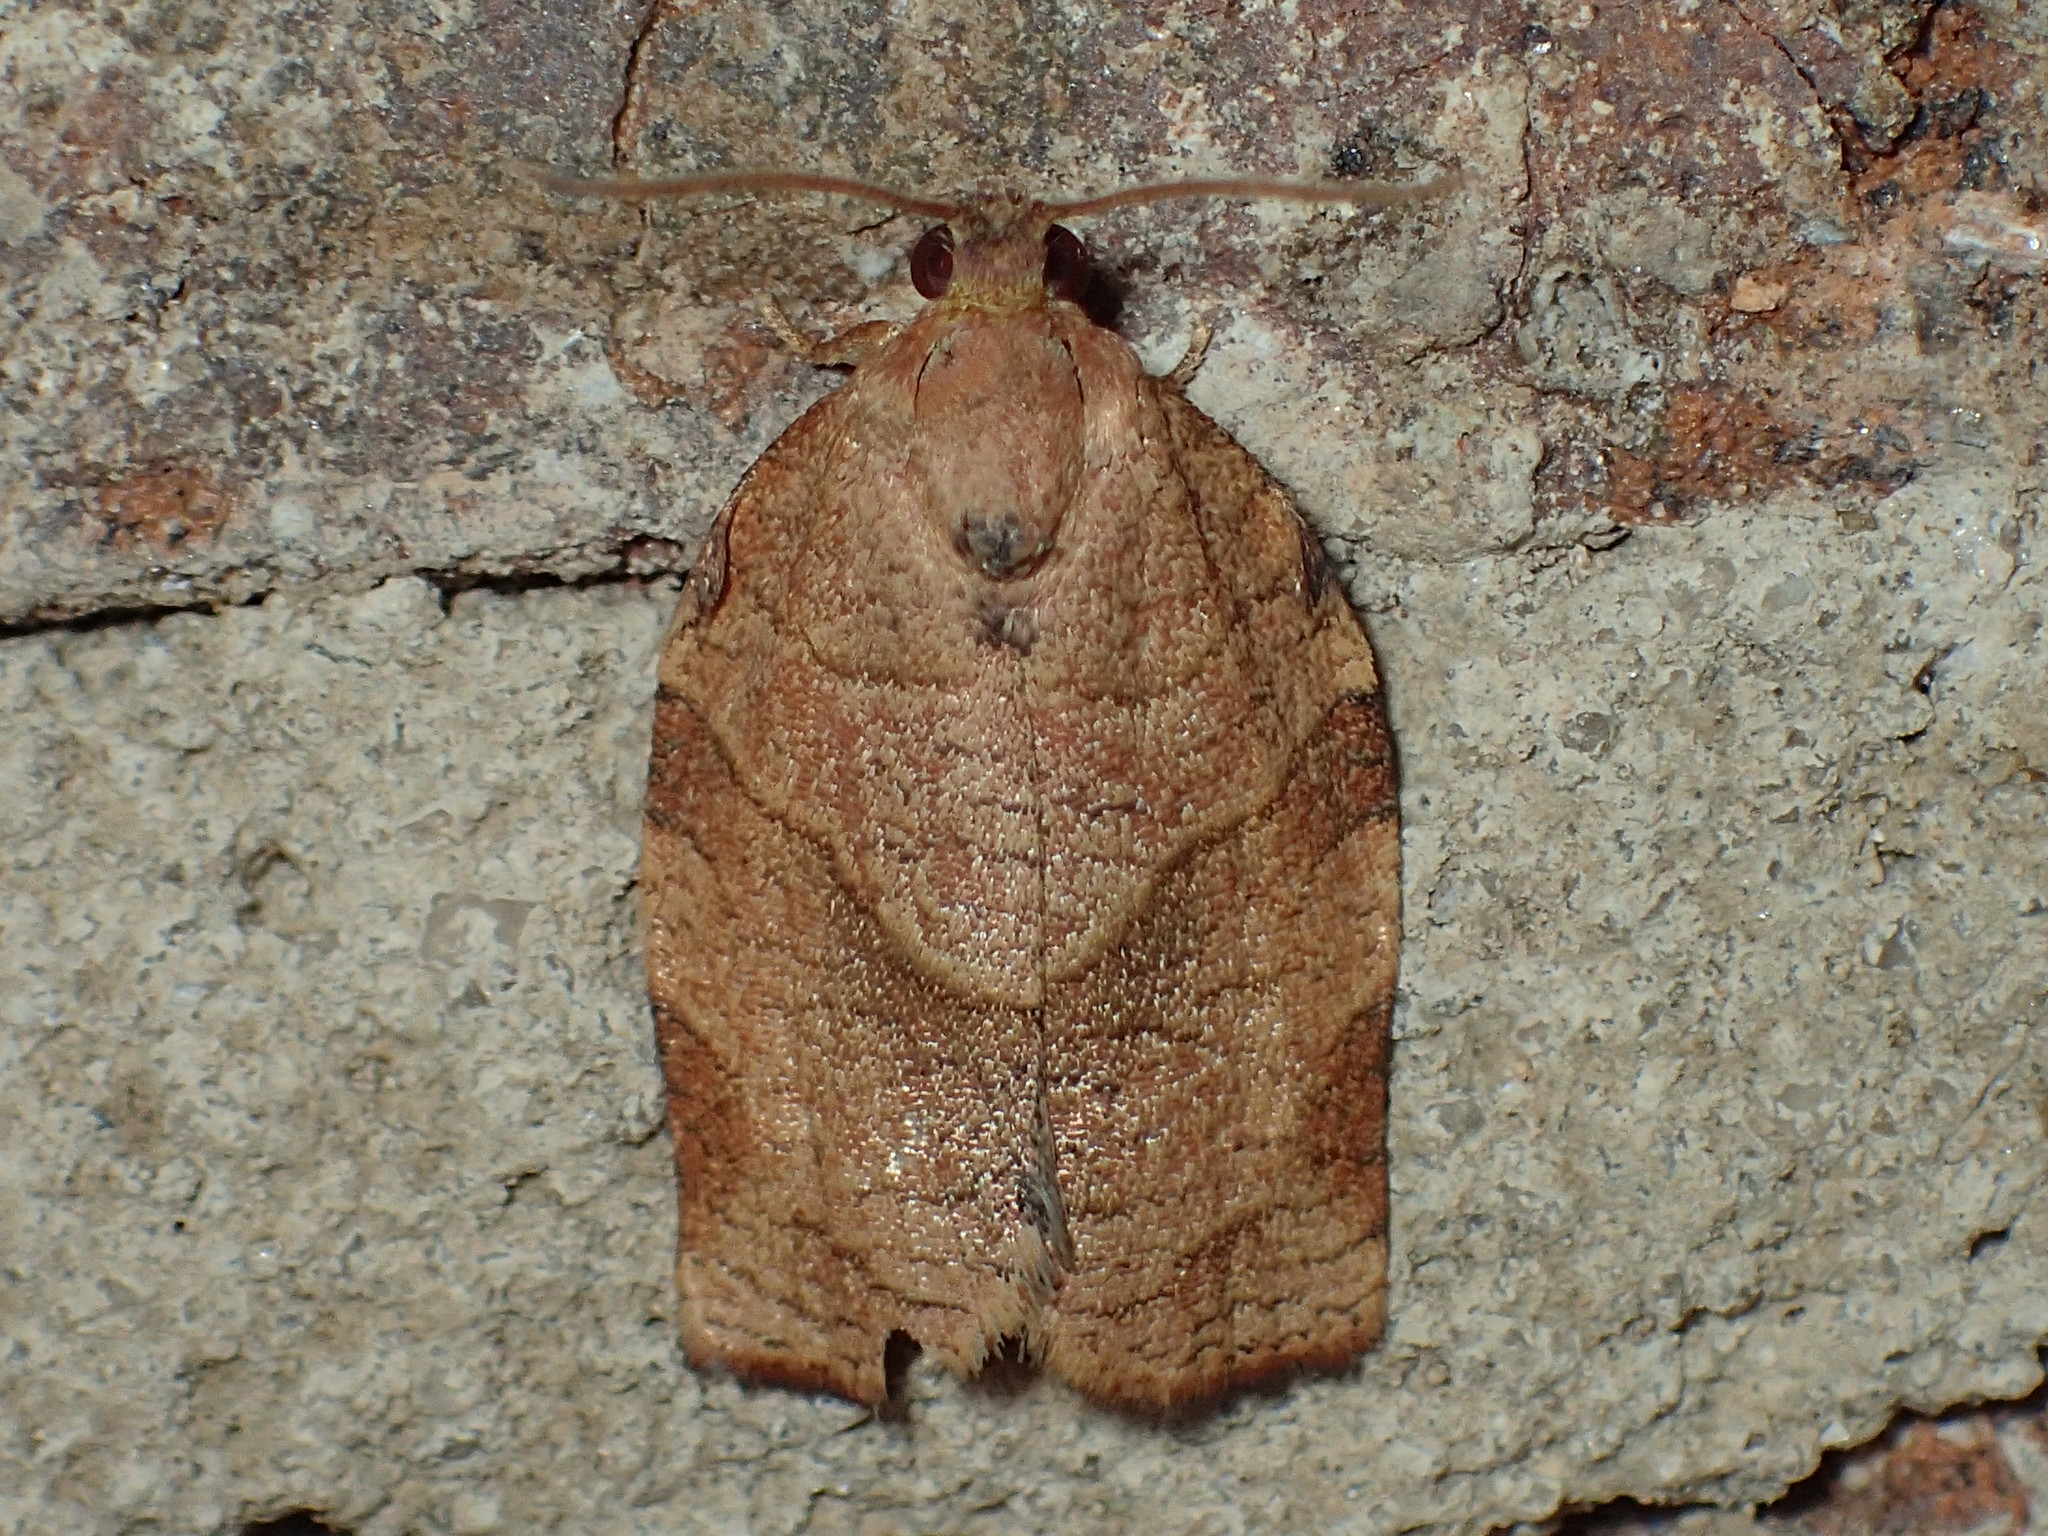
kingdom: Animalia
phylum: Arthropoda
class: Insecta
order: Lepidoptera
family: Tortricidae
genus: Choristoneura
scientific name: Choristoneura rosaceana
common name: Oblique-banded leafroller moth
